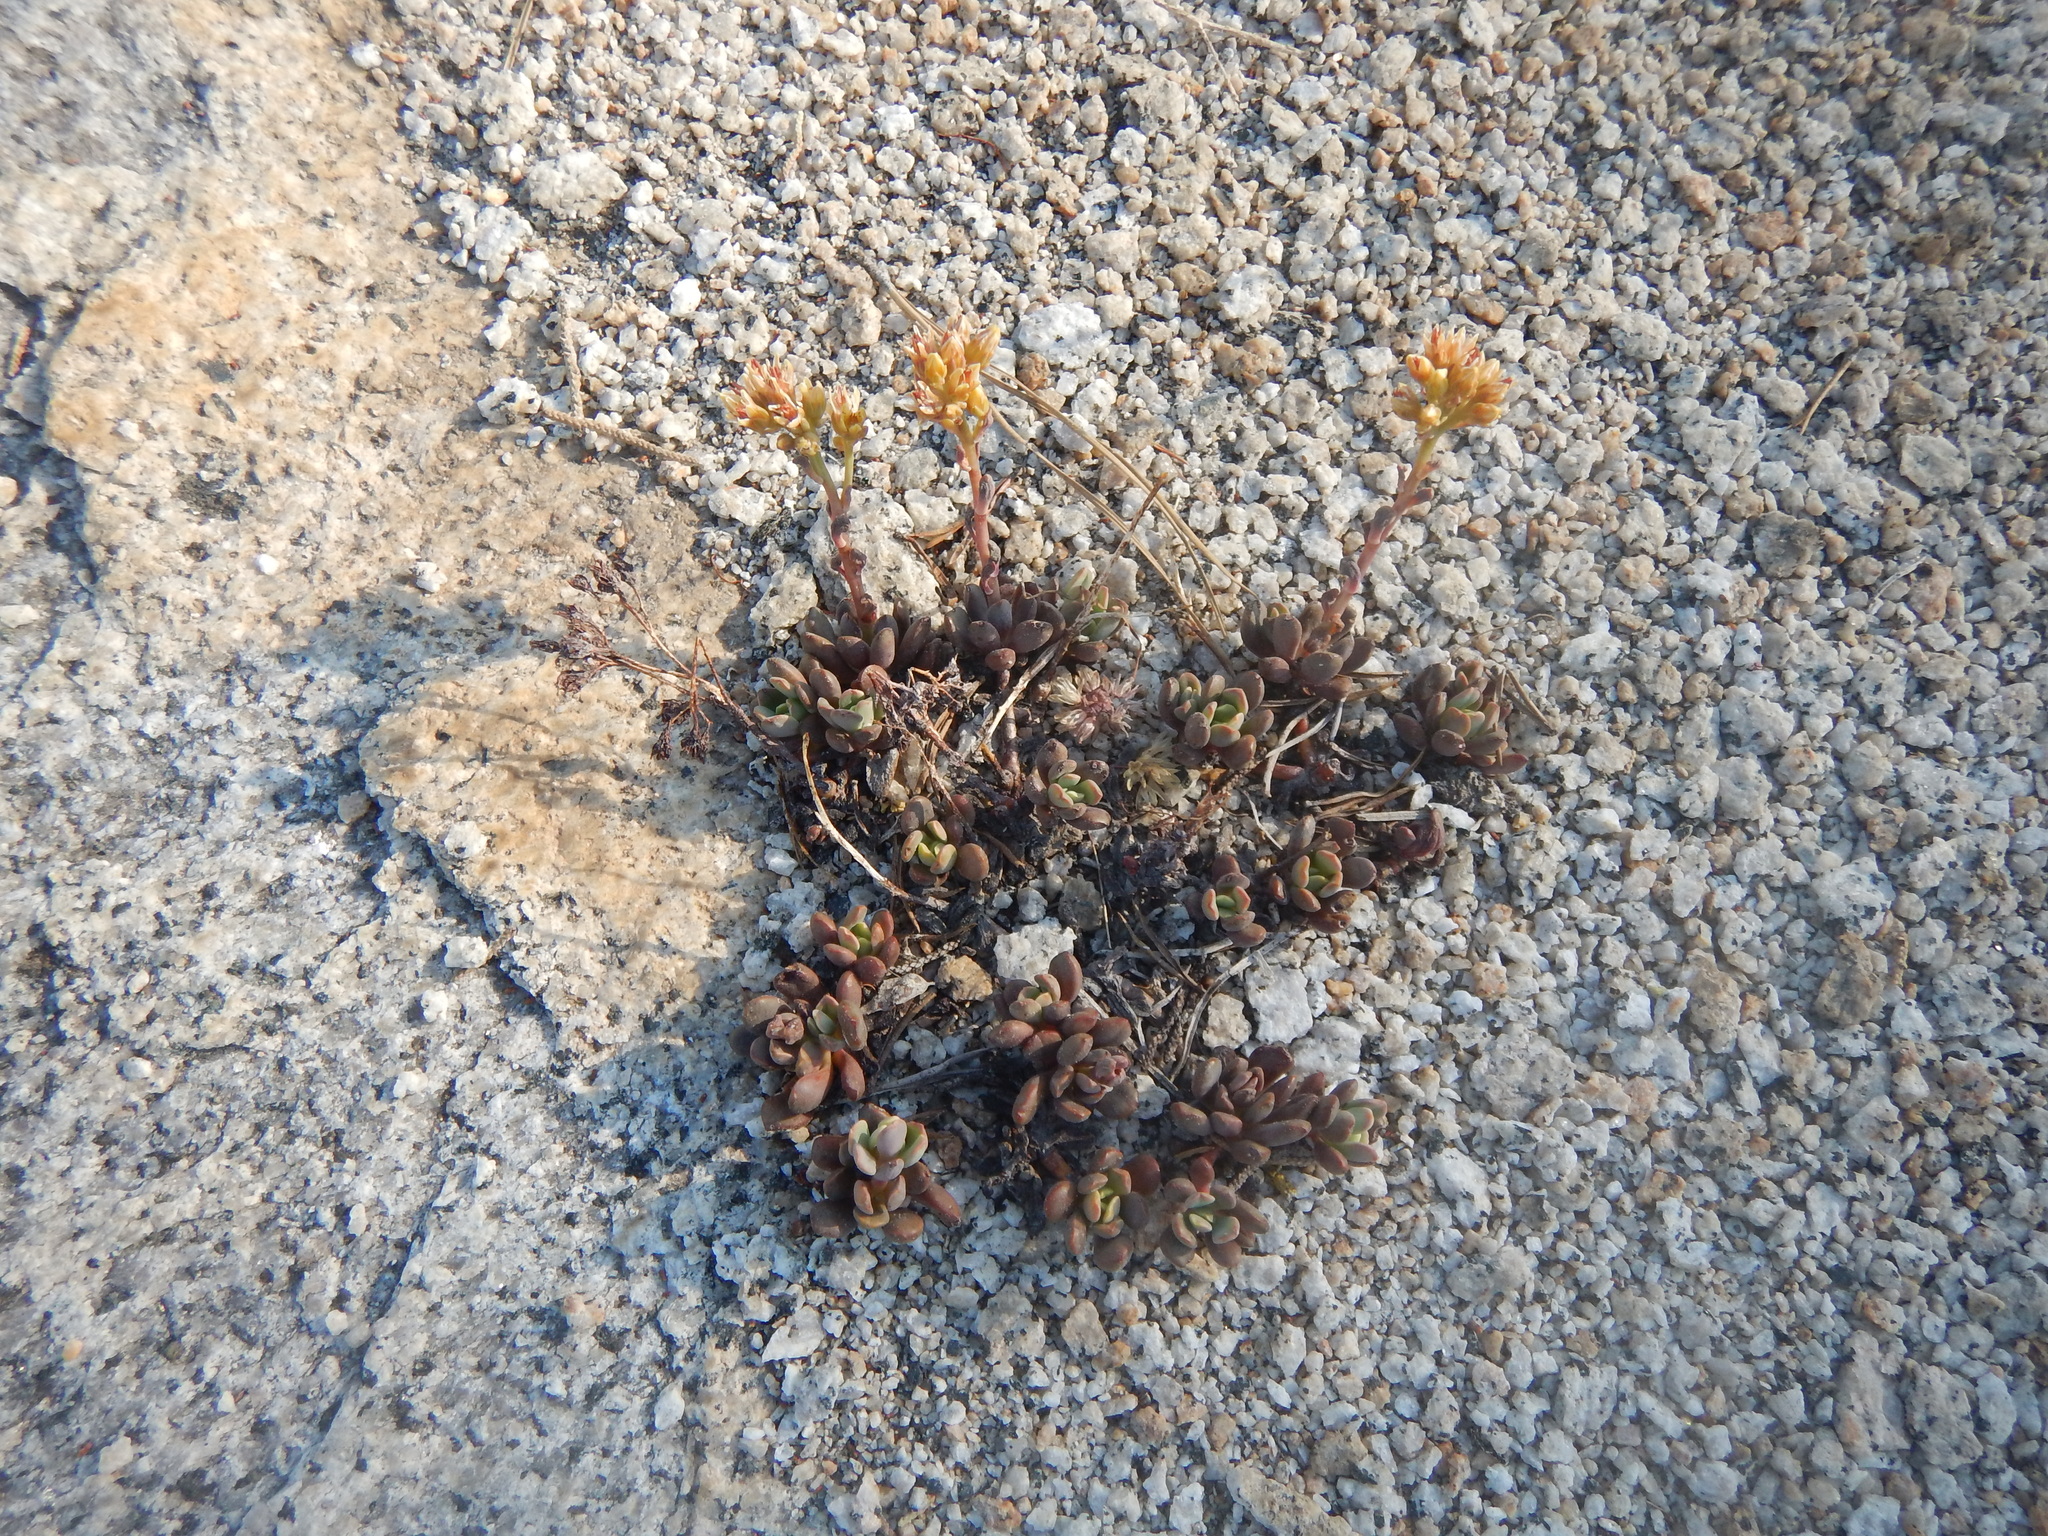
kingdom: Plantae
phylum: Tracheophyta
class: Magnoliopsida
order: Saxifragales
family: Crassulaceae
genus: Sedum
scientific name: Sedum obtusatum
